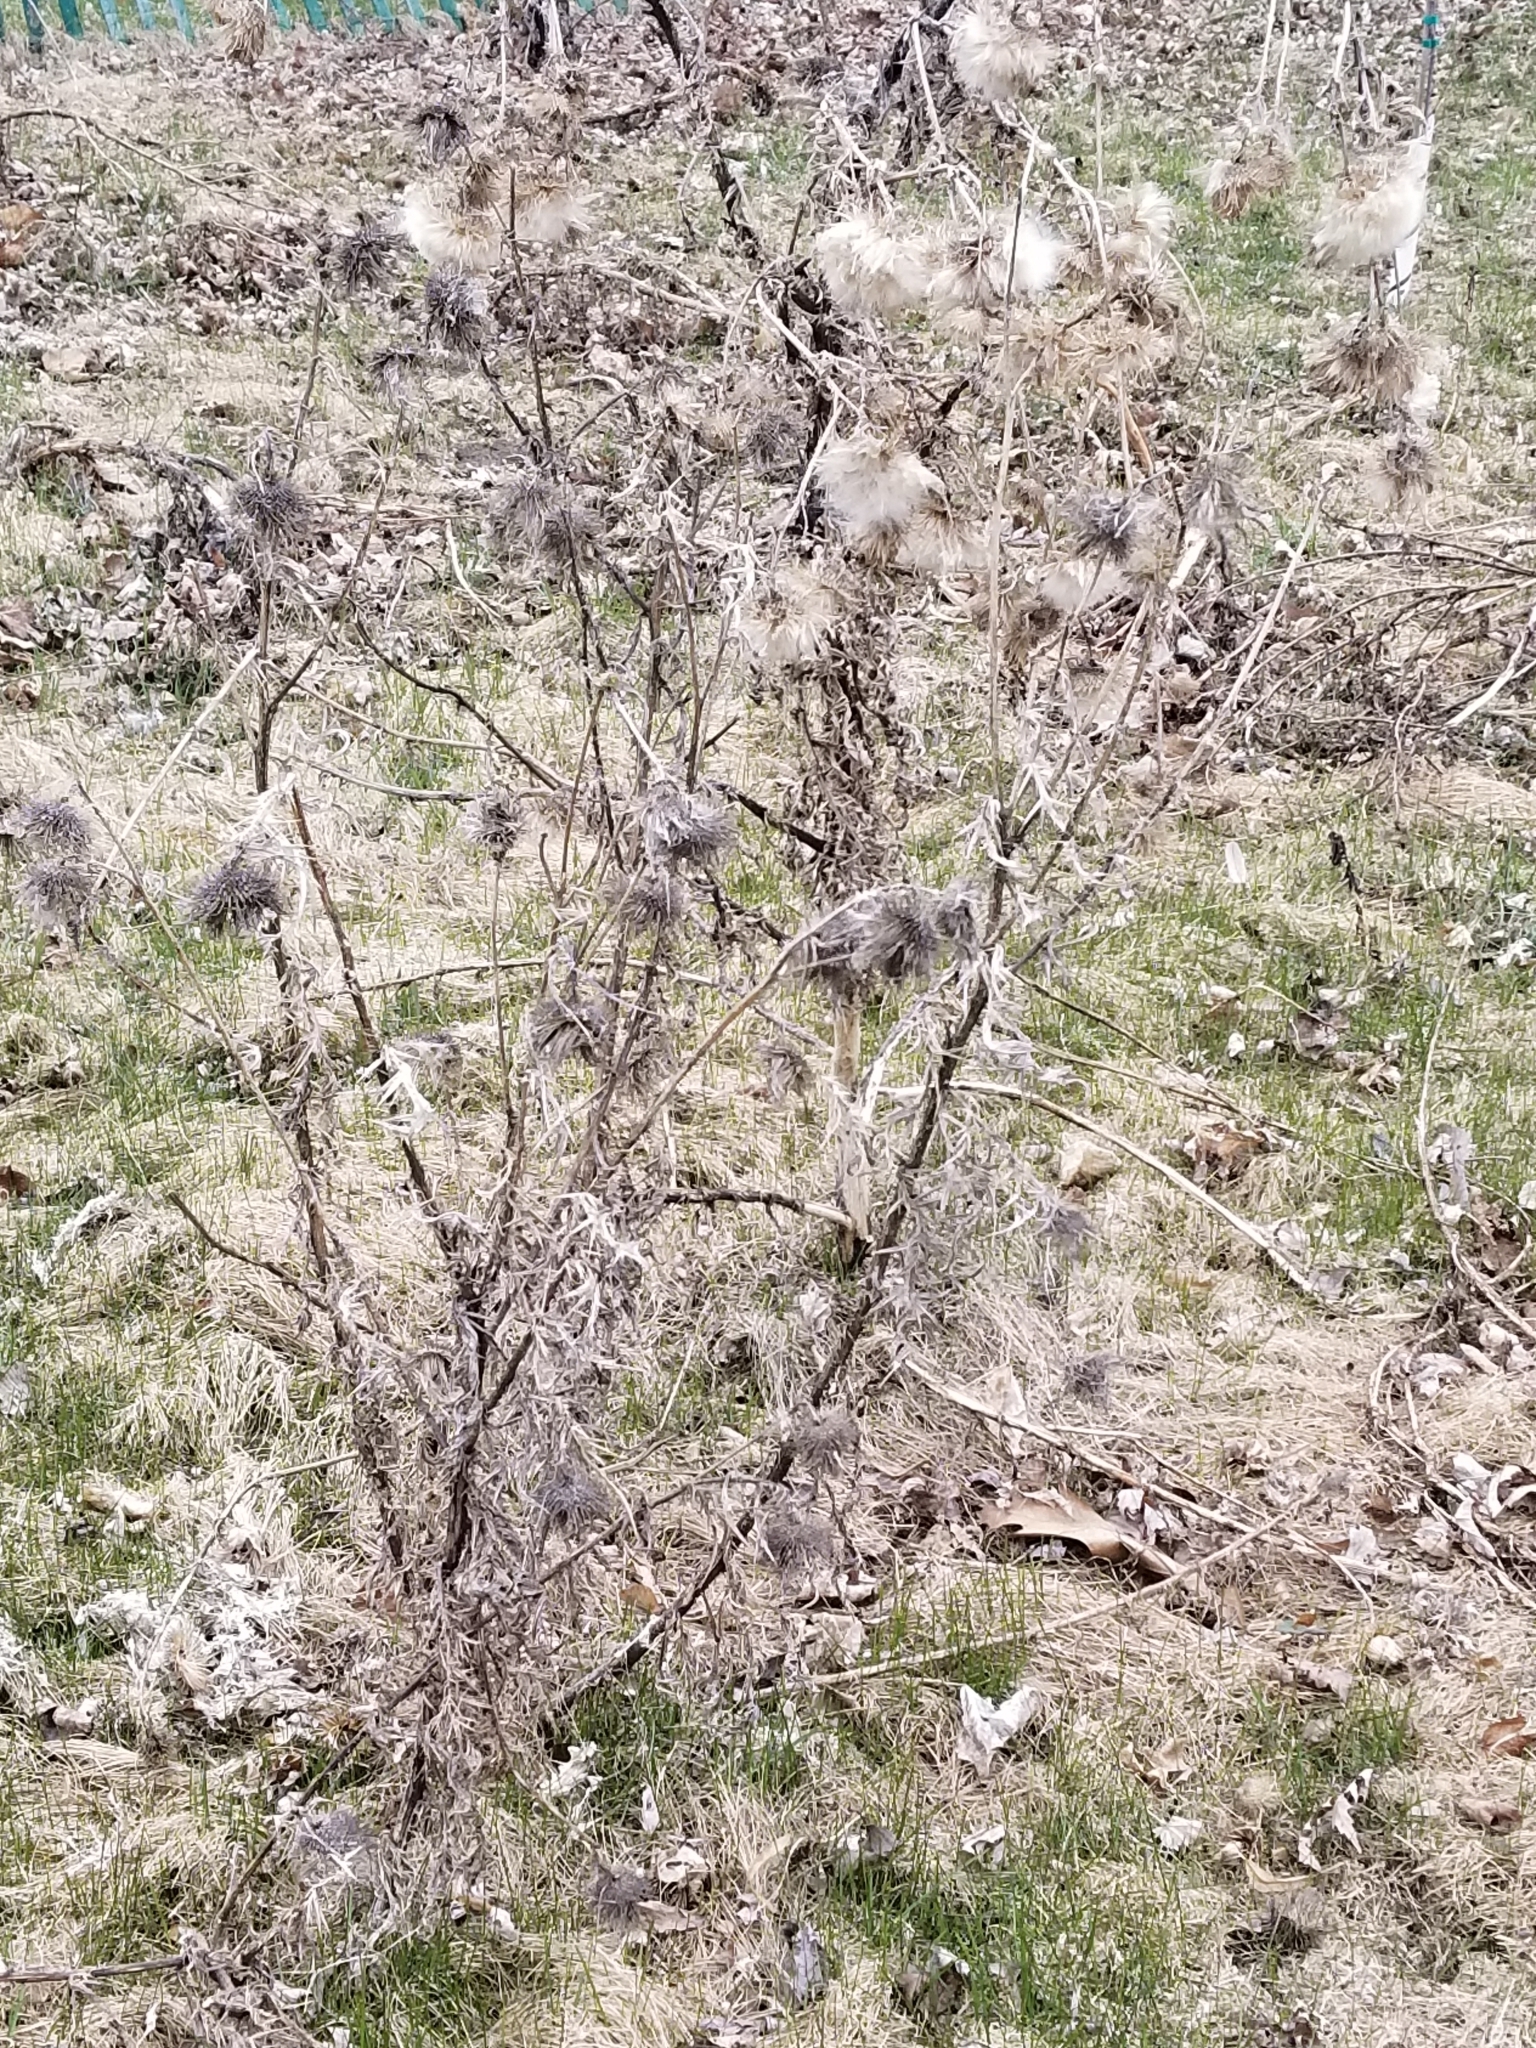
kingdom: Plantae
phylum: Tracheophyta
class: Magnoliopsida
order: Asterales
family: Asteraceae
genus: Cirsium
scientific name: Cirsium vulgare
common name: Bull thistle
